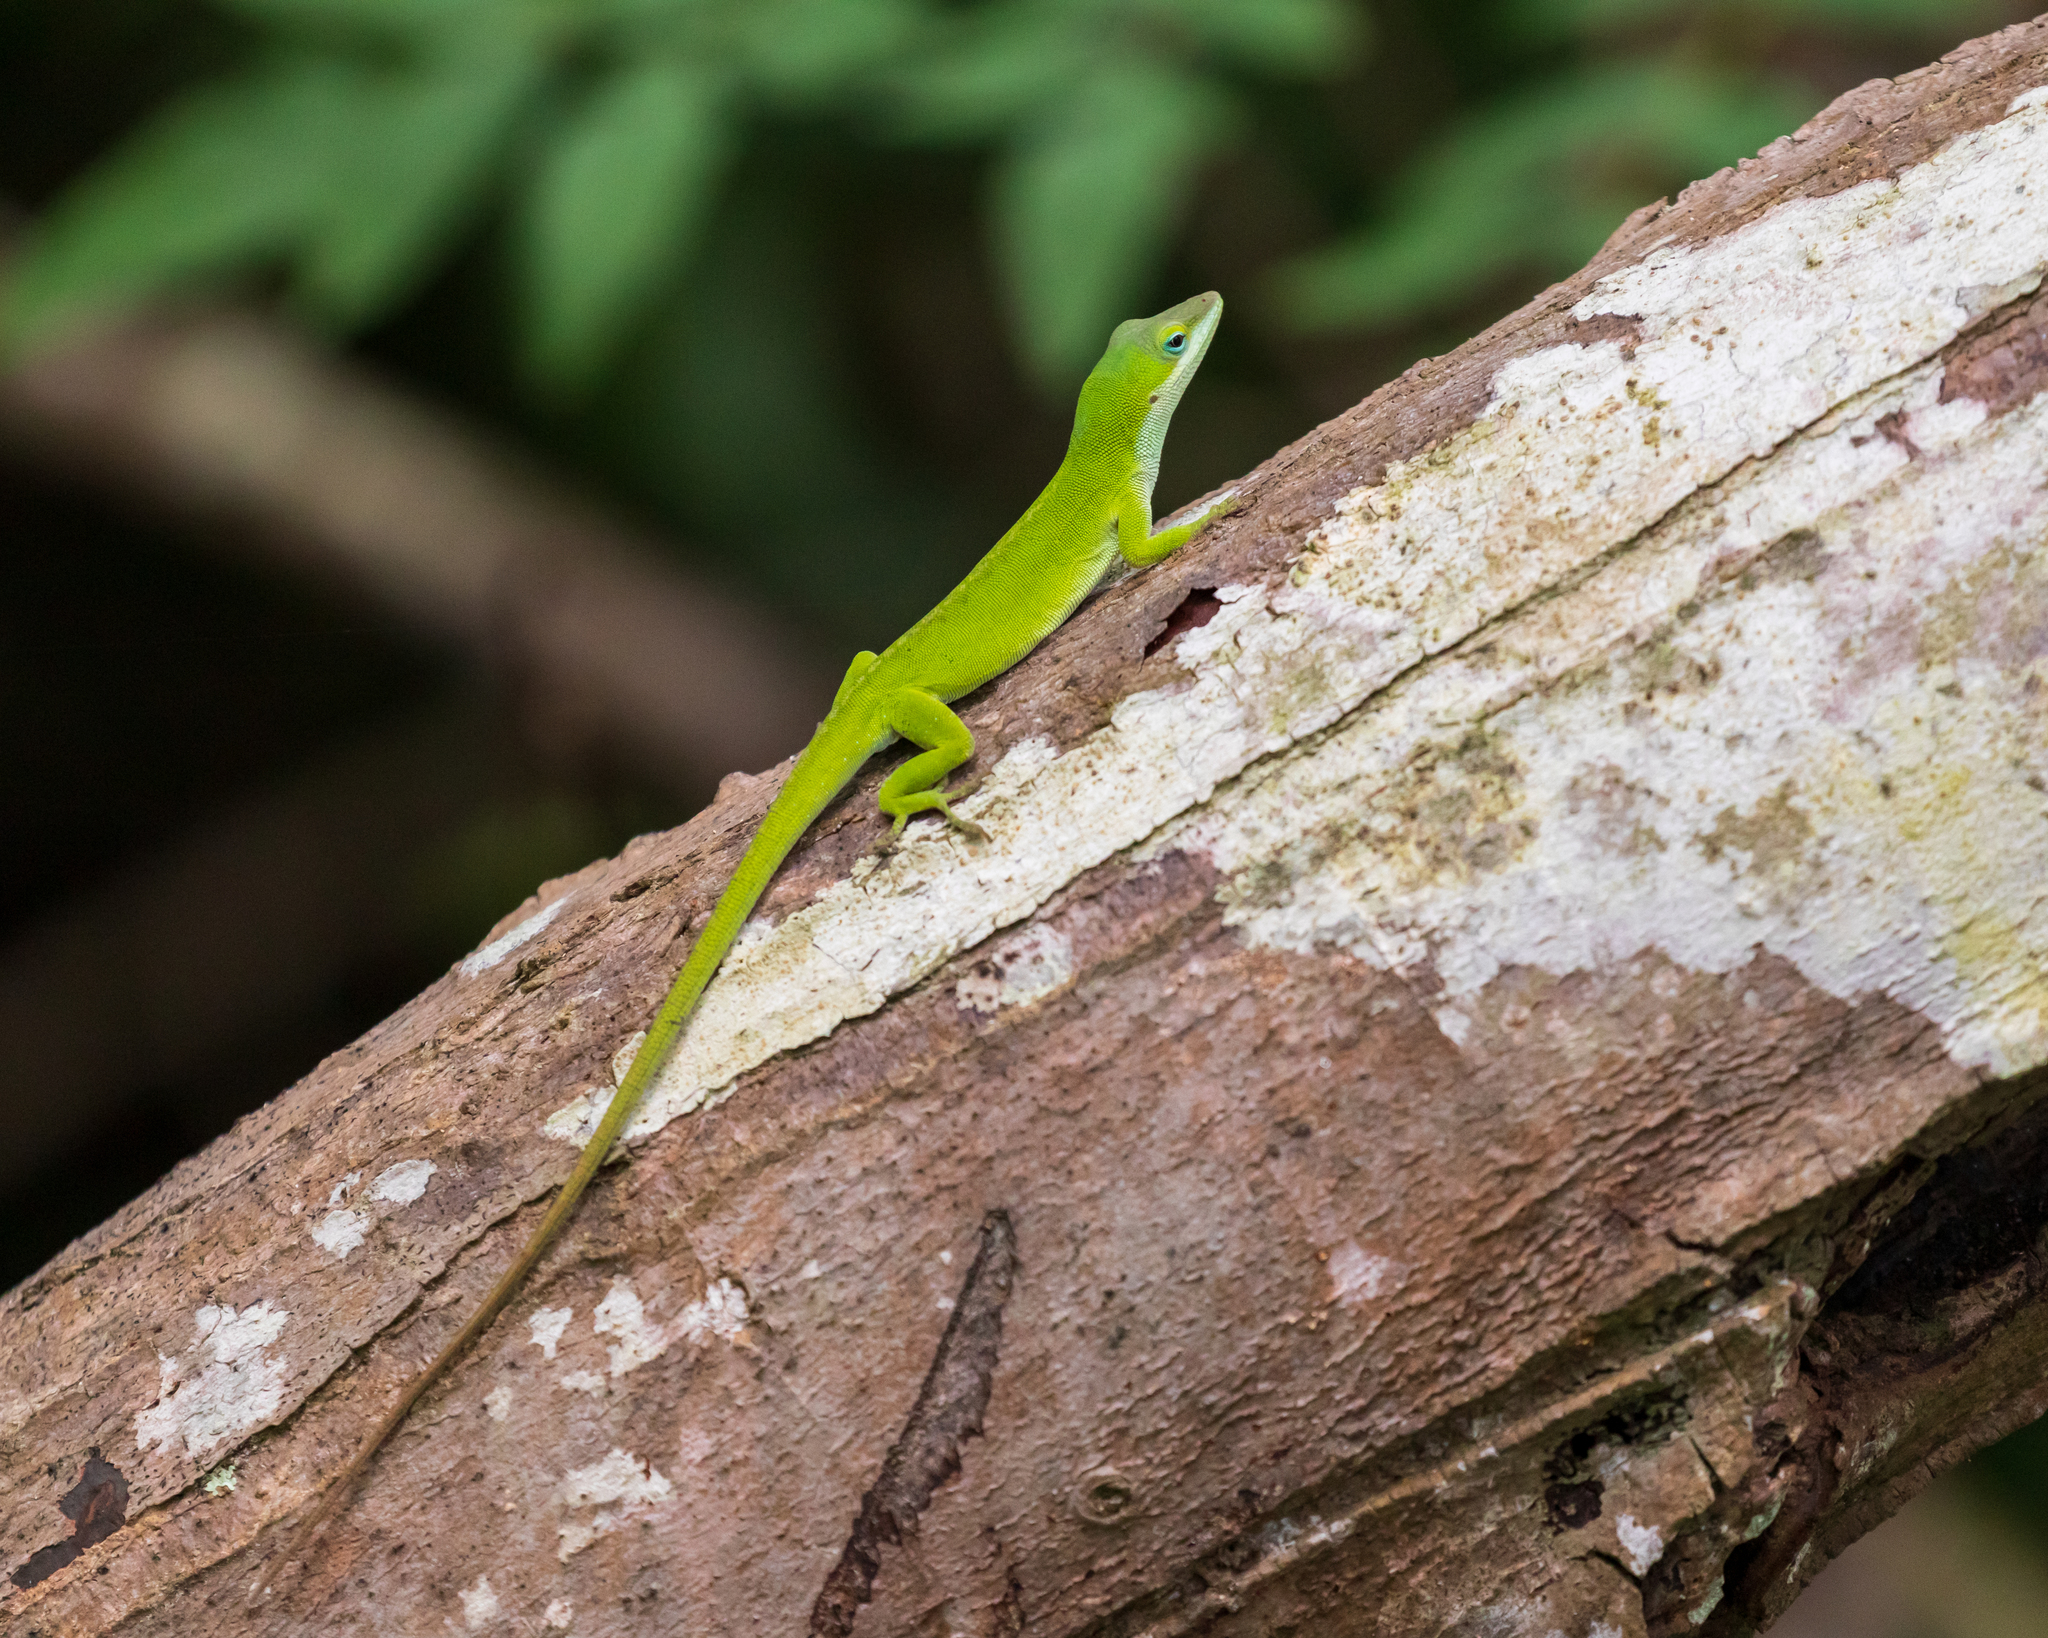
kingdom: Animalia
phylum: Chordata
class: Squamata
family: Dactyloidae
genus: Anolis
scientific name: Anolis carolinensis
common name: Green anole
